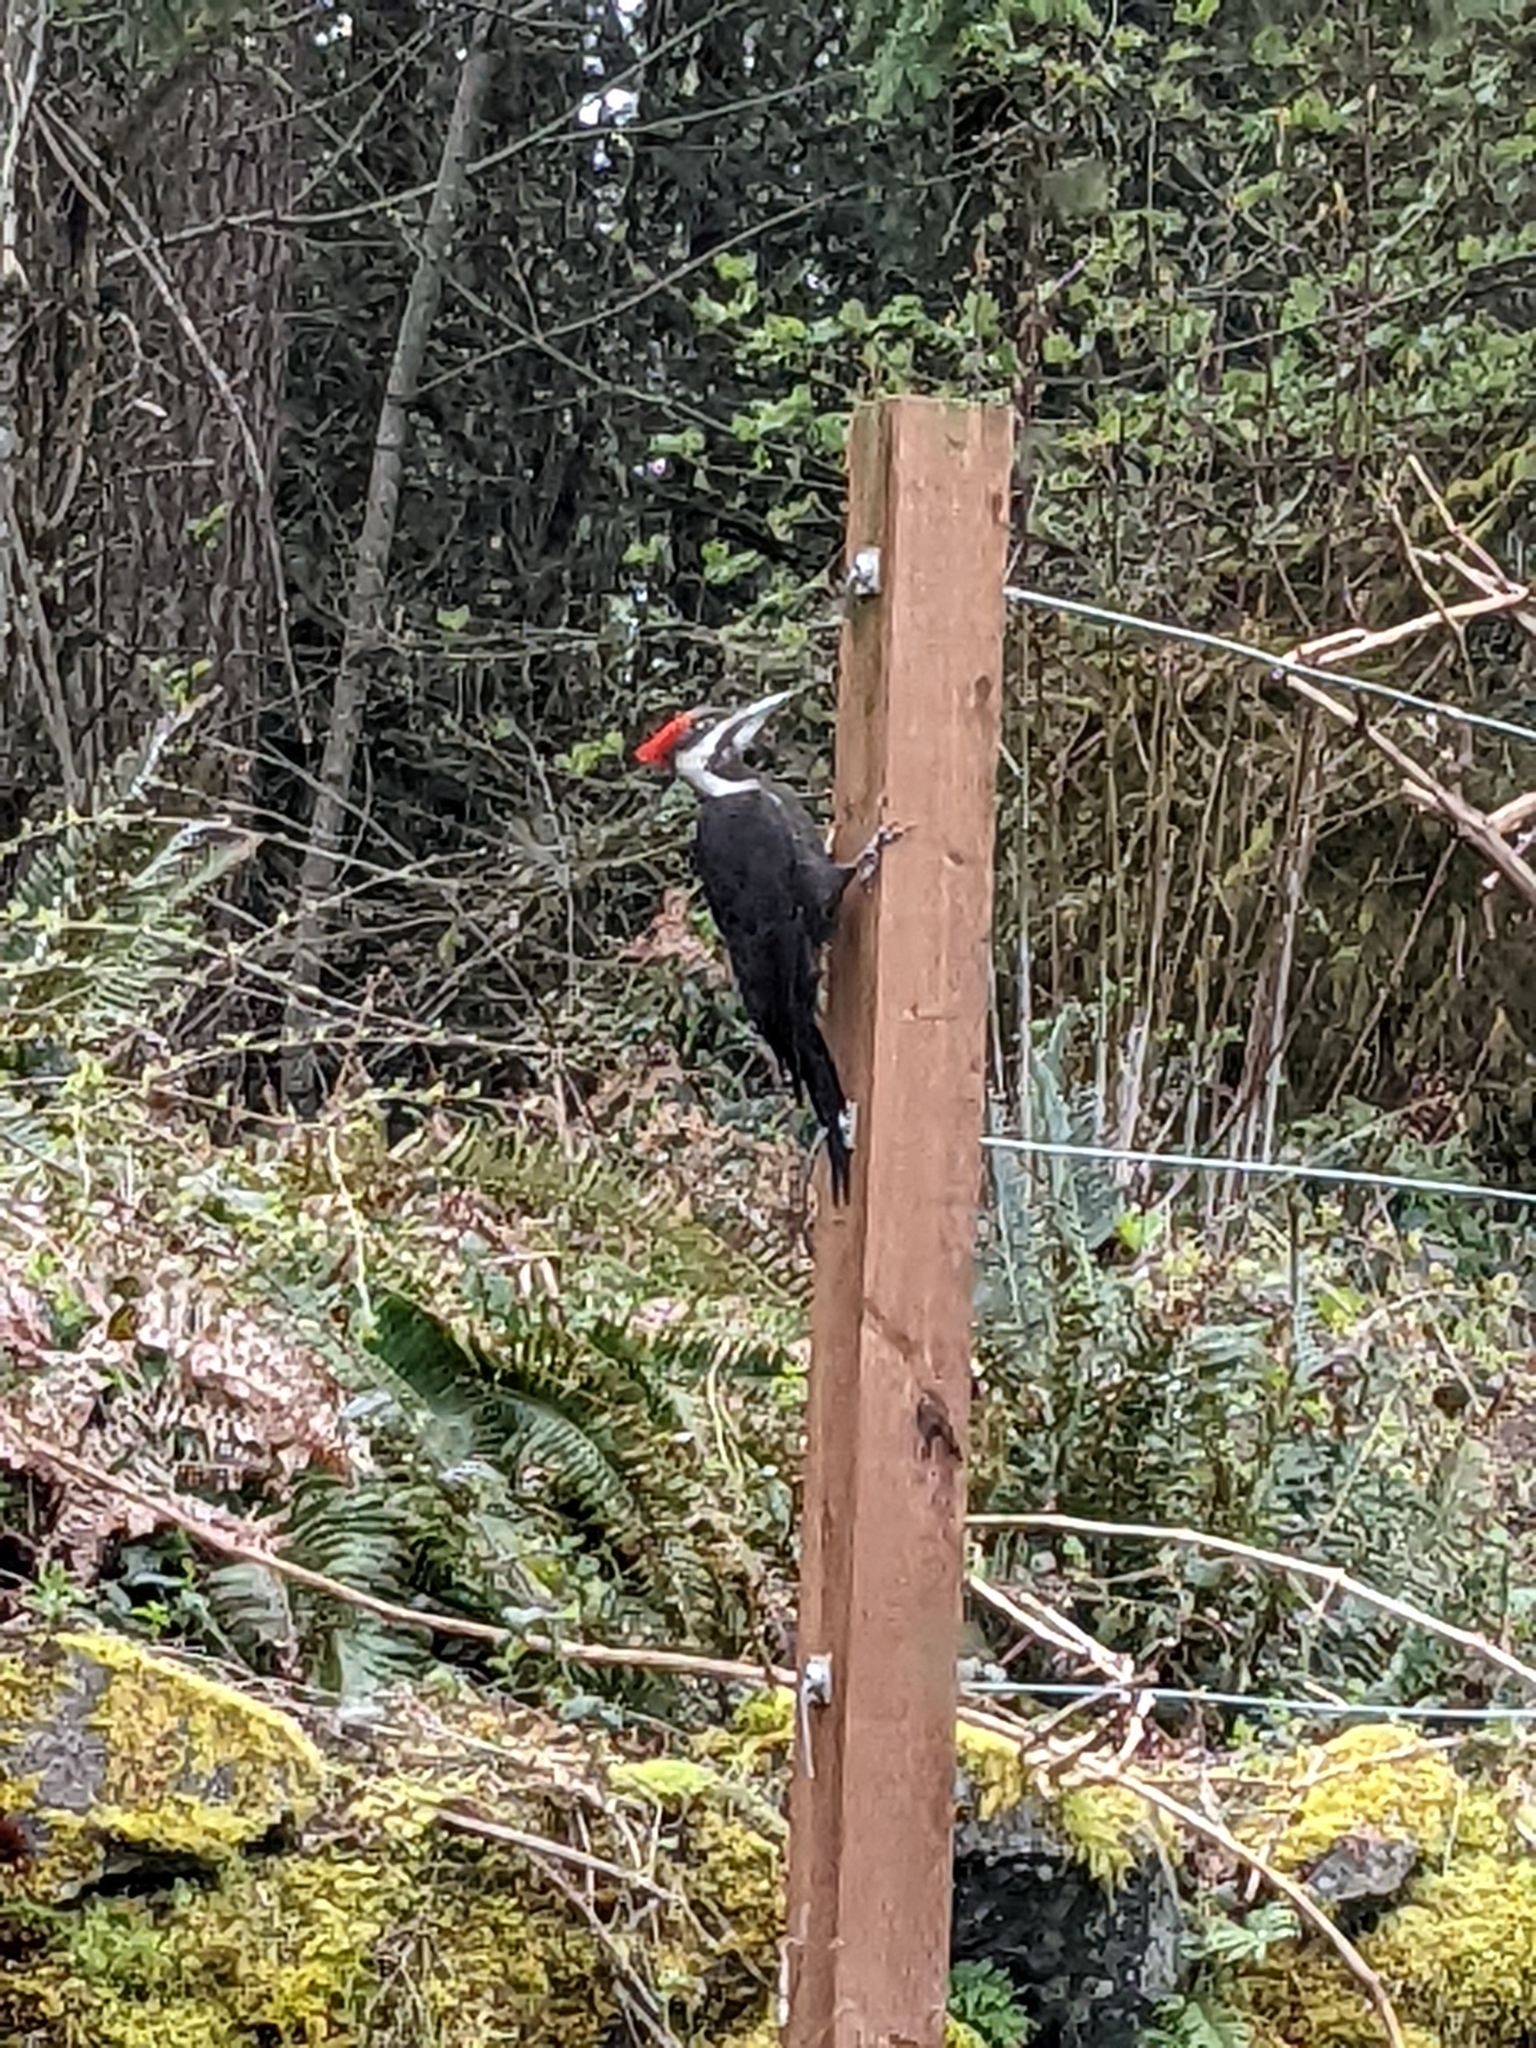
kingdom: Animalia
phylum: Chordata
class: Aves
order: Piciformes
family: Picidae
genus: Dryocopus
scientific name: Dryocopus pileatus
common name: Pileated woodpecker
